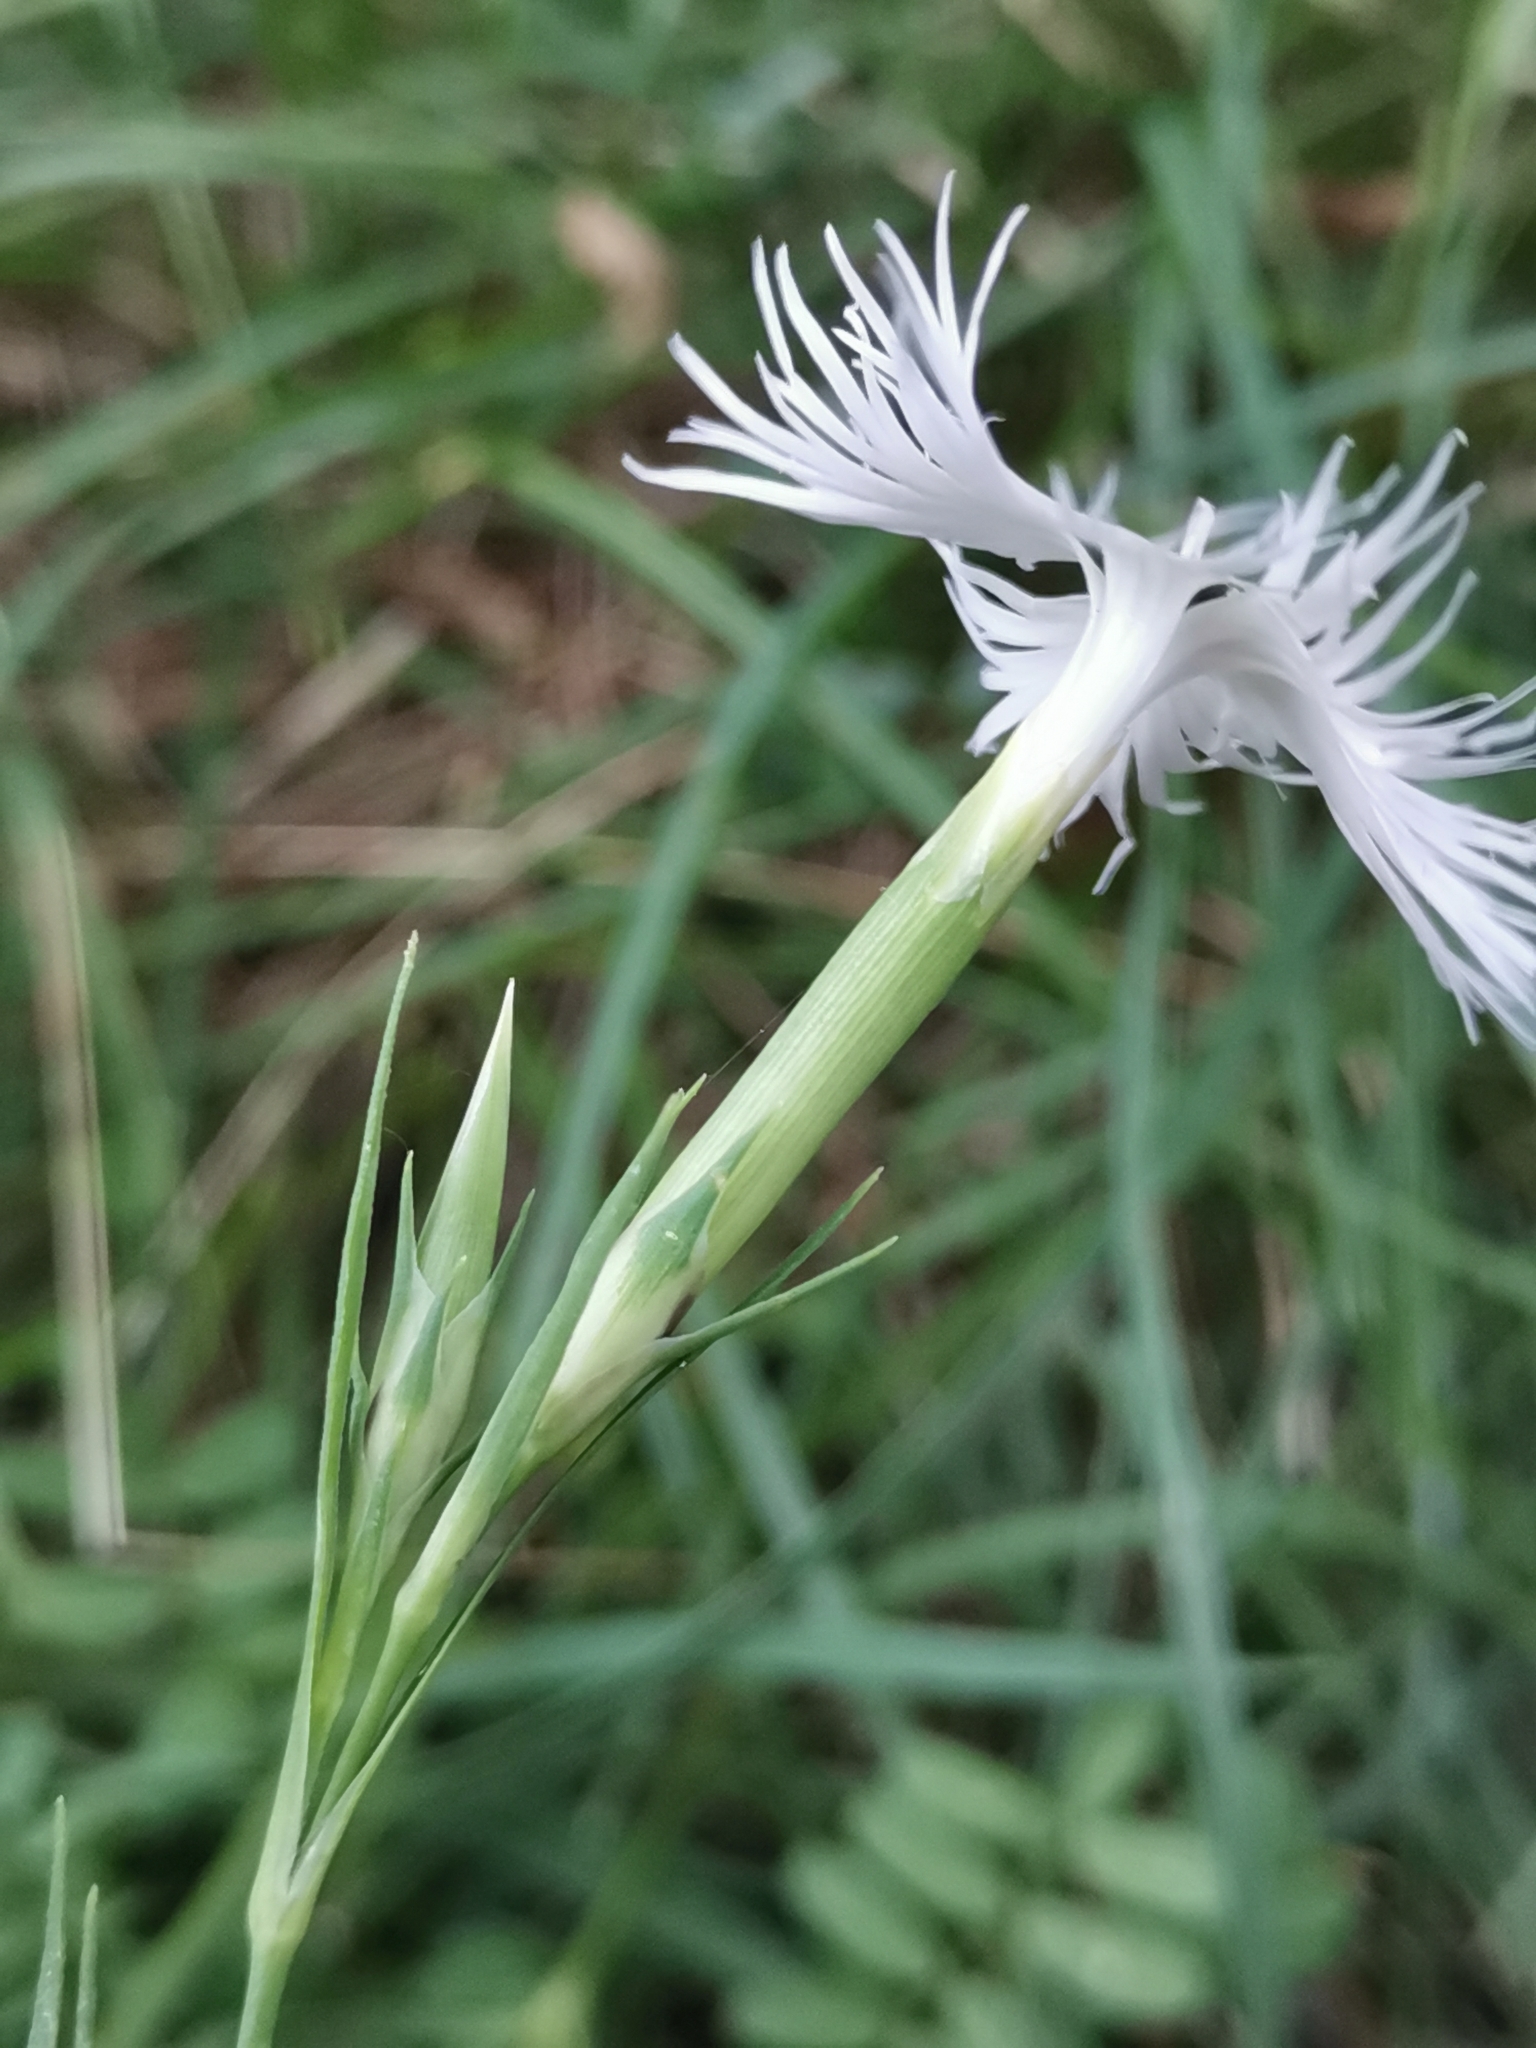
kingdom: Plantae
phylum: Tracheophyta
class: Magnoliopsida
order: Caryophyllales
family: Caryophyllaceae
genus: Dianthus
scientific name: Dianthus monspessulanus
